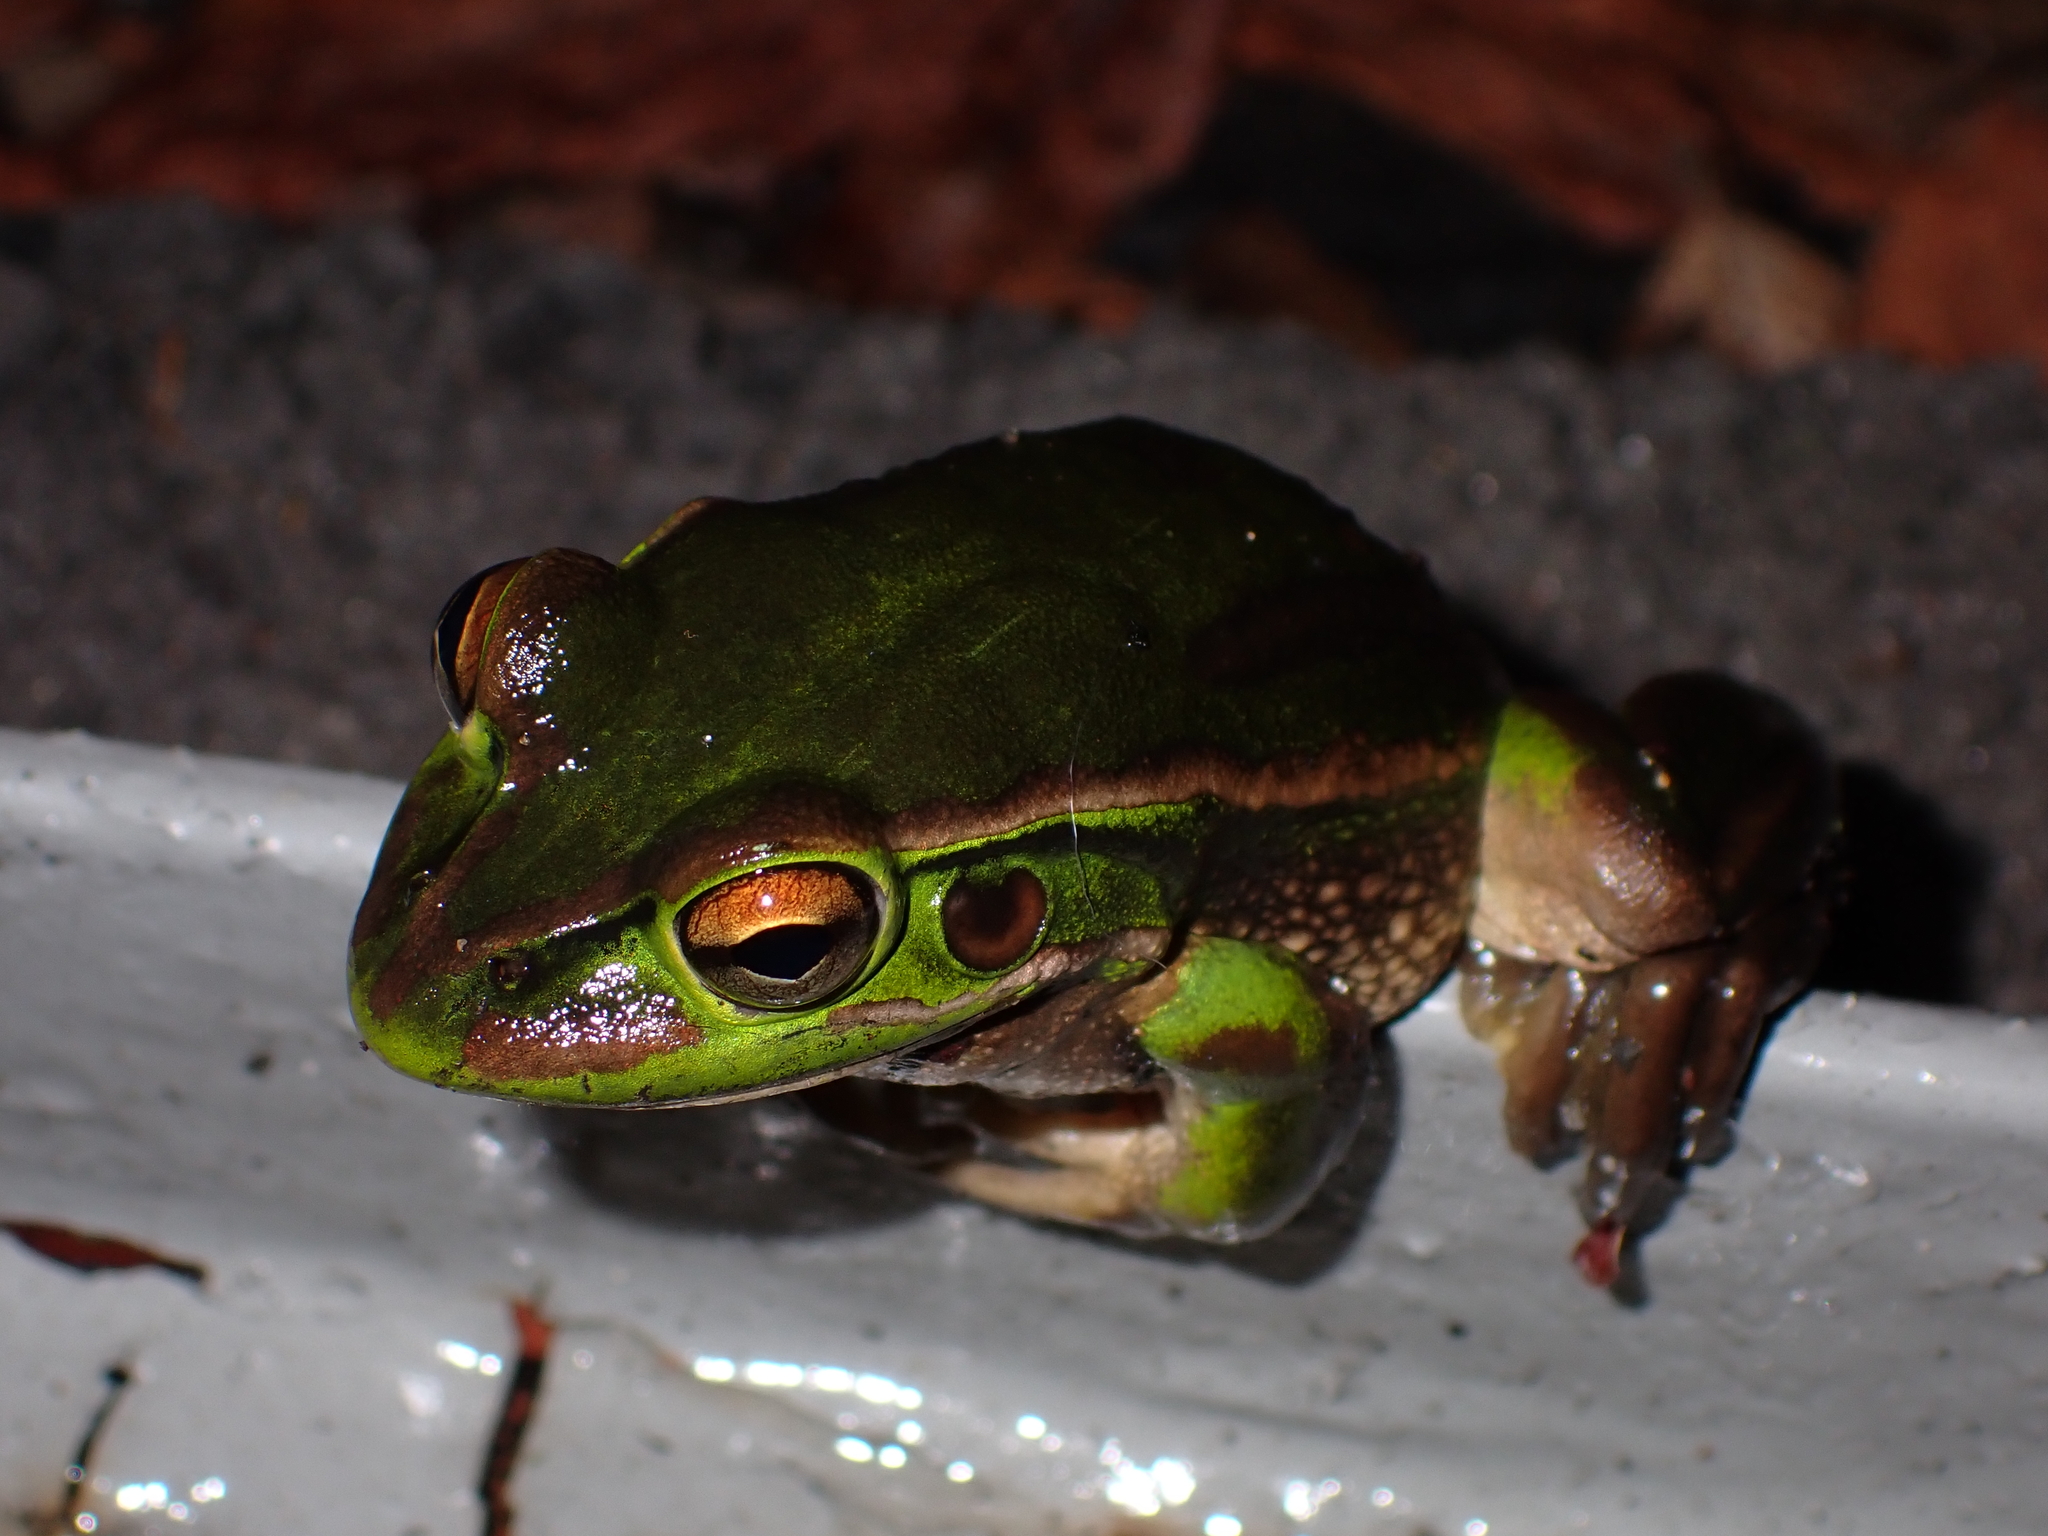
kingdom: Animalia
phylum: Chordata
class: Amphibia
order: Anura
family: Pelodryadidae
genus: Ranoidea
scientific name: Ranoidea aurea
